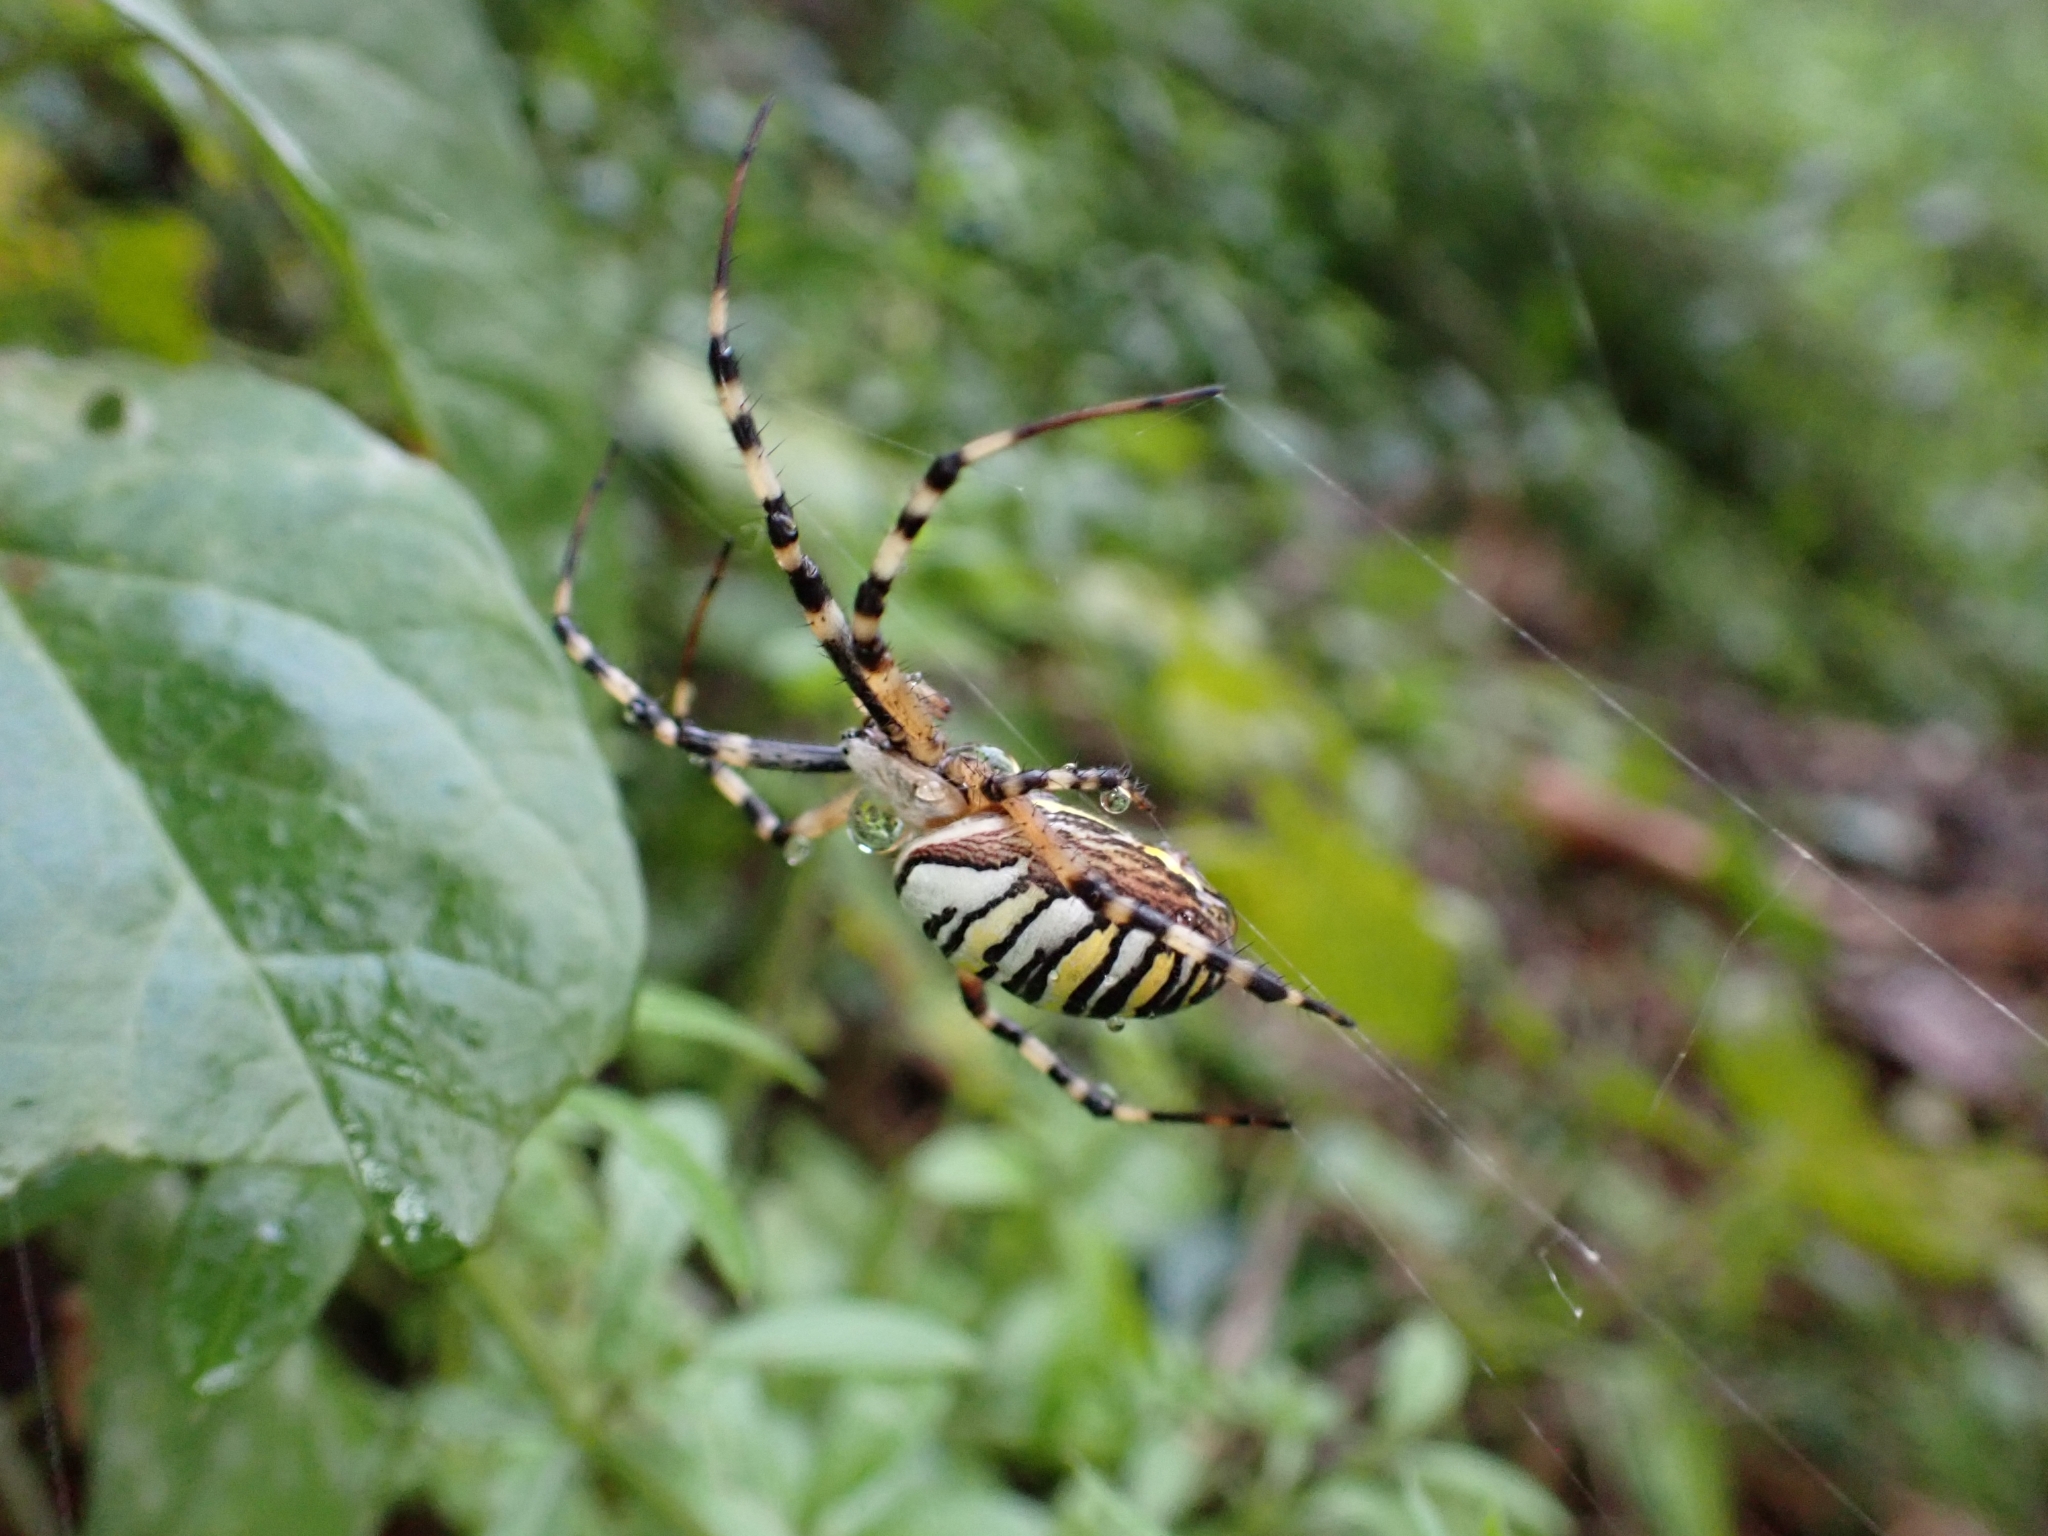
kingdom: Animalia
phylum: Arthropoda
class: Arachnida
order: Araneae
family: Araneidae
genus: Argiope
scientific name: Argiope bruennichi
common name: Wasp spider
